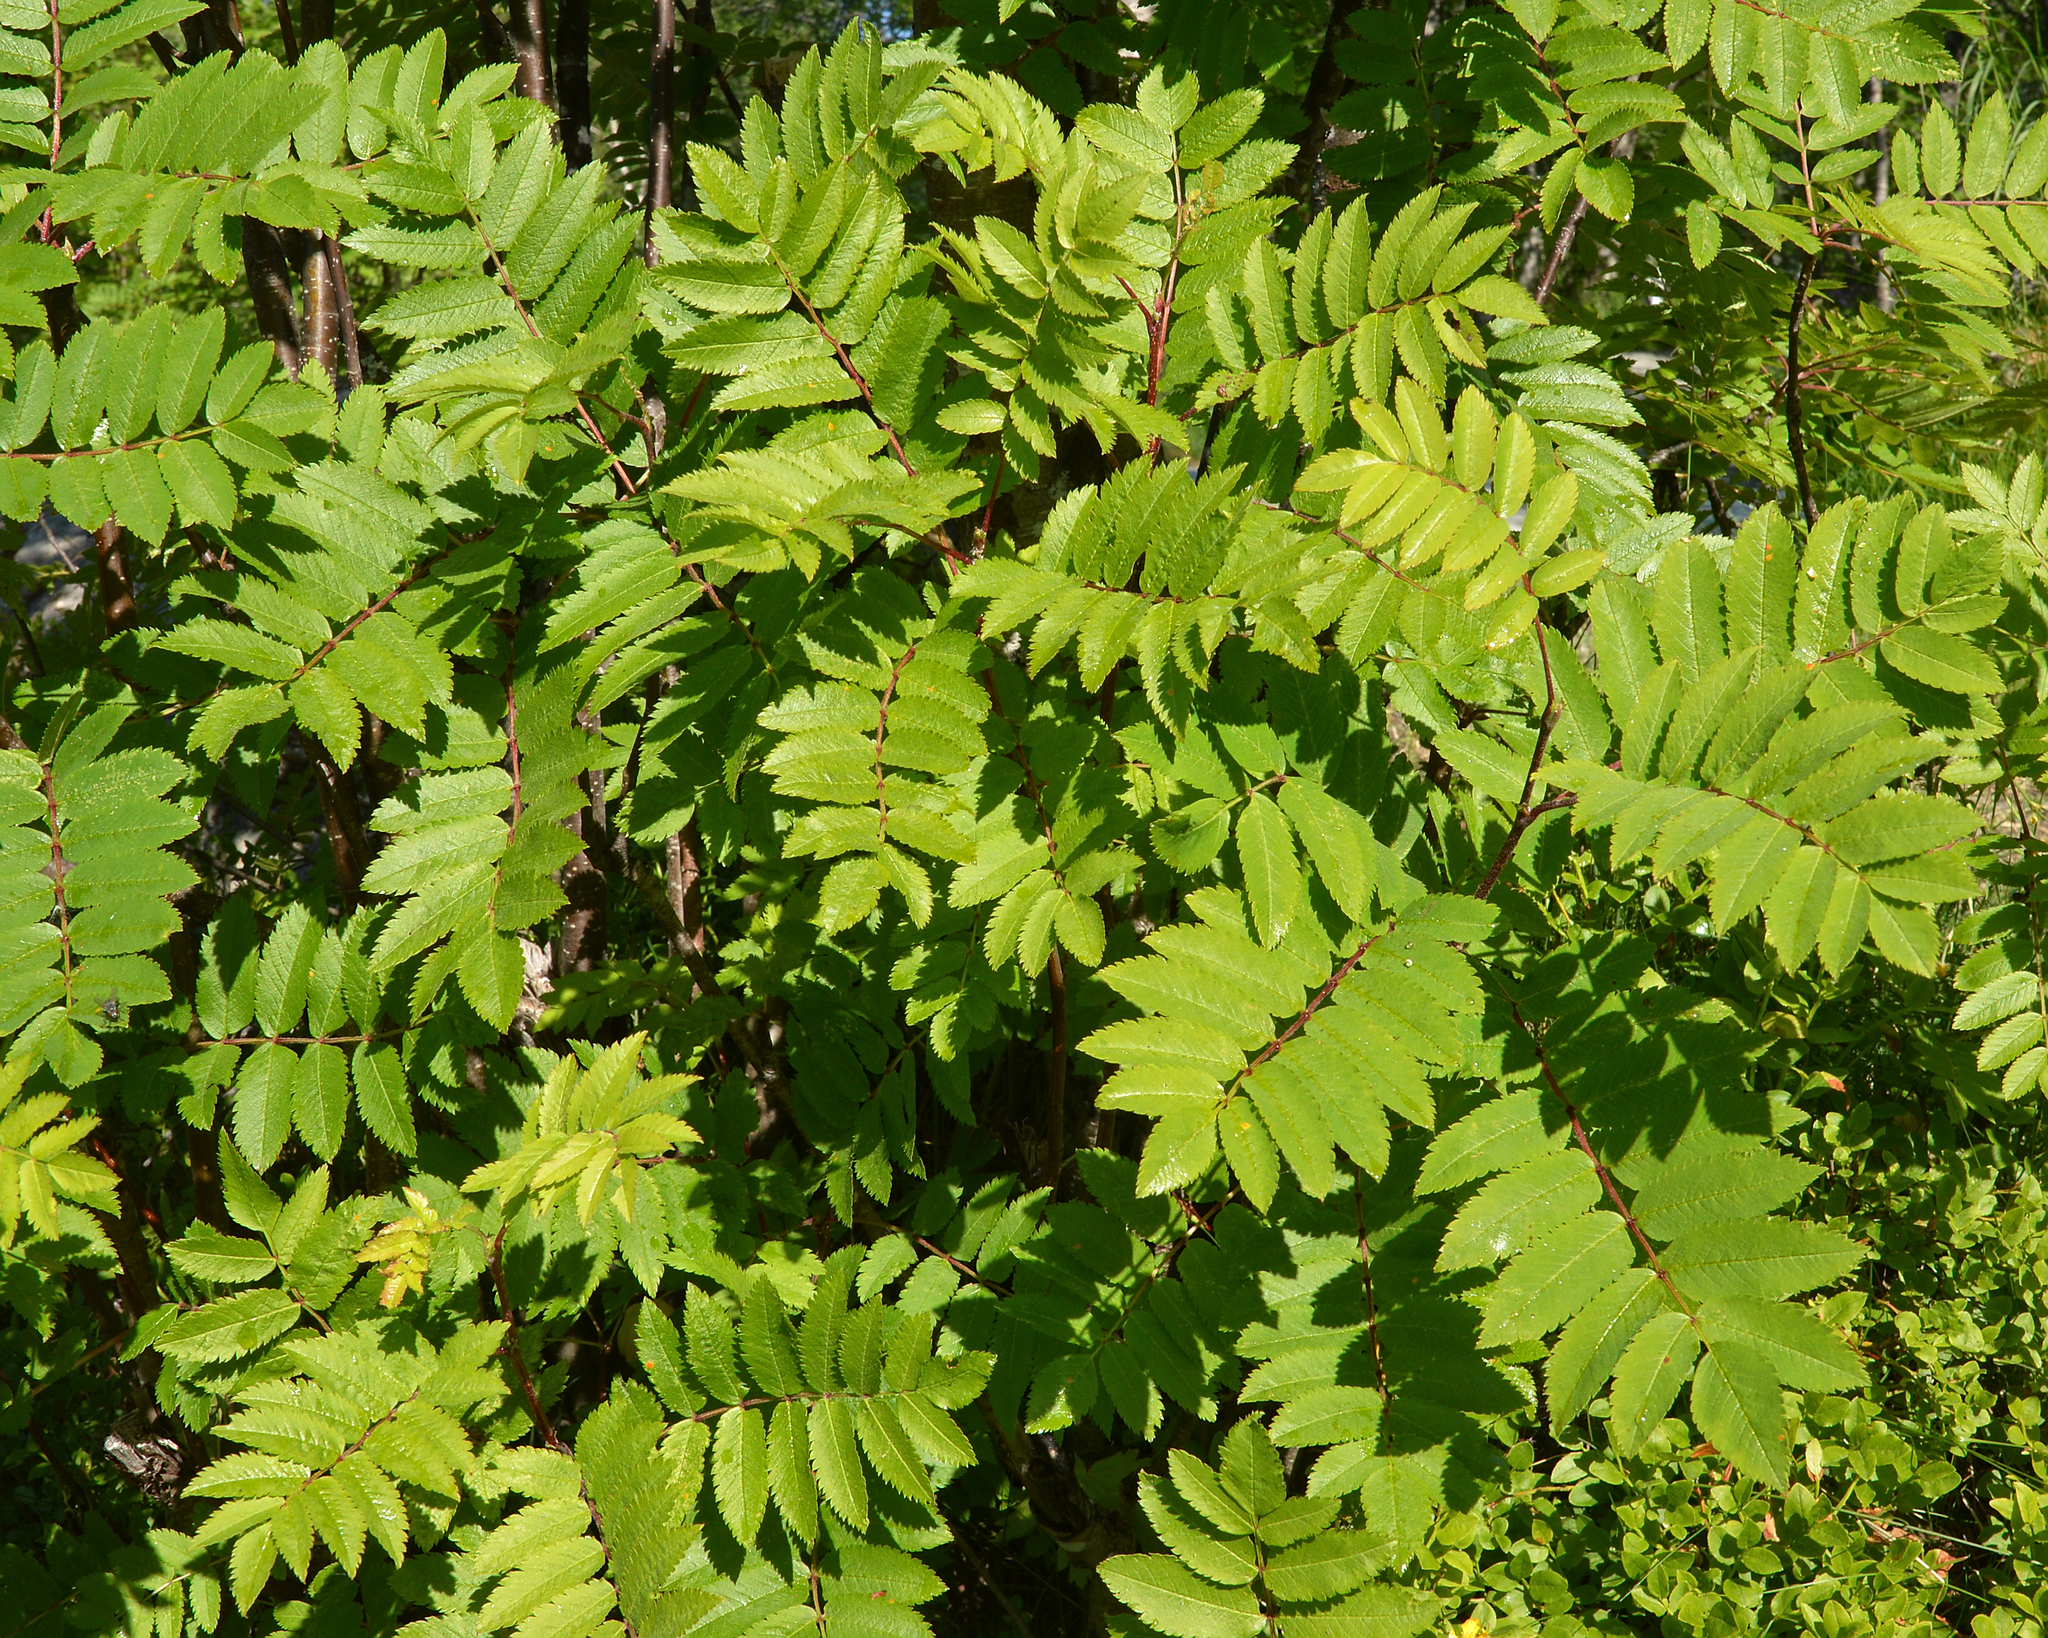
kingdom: Plantae
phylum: Tracheophyta
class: Magnoliopsida
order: Rosales
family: Rosaceae
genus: Sorbus
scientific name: Sorbus aucuparia
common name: Rowan
